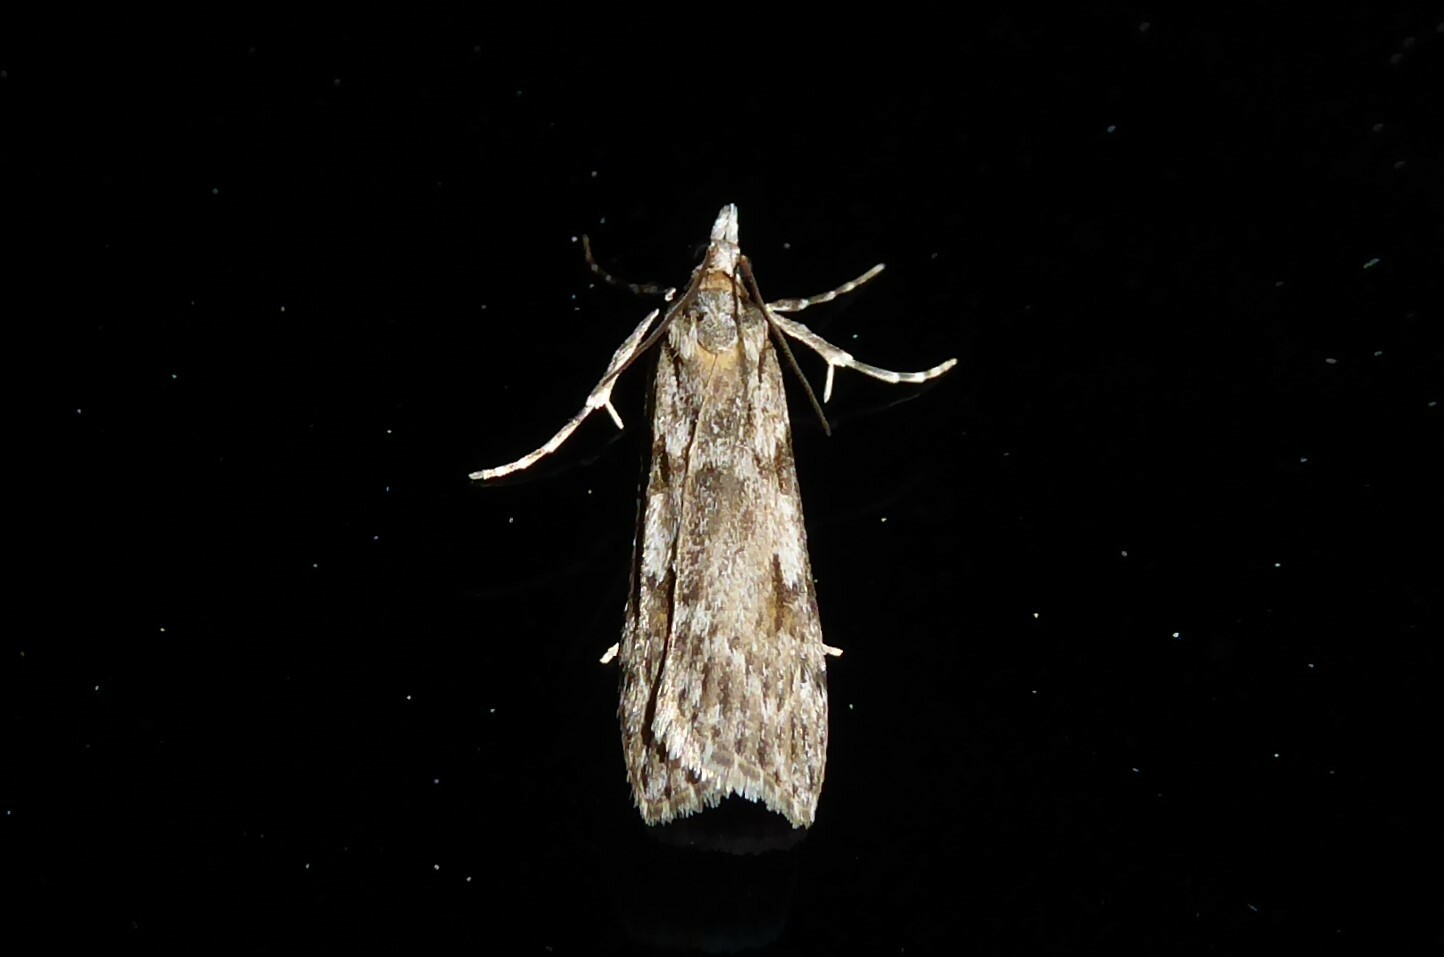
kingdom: Animalia
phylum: Arthropoda
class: Insecta
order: Lepidoptera
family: Crambidae
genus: Scoparia
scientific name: Scoparia halopis
